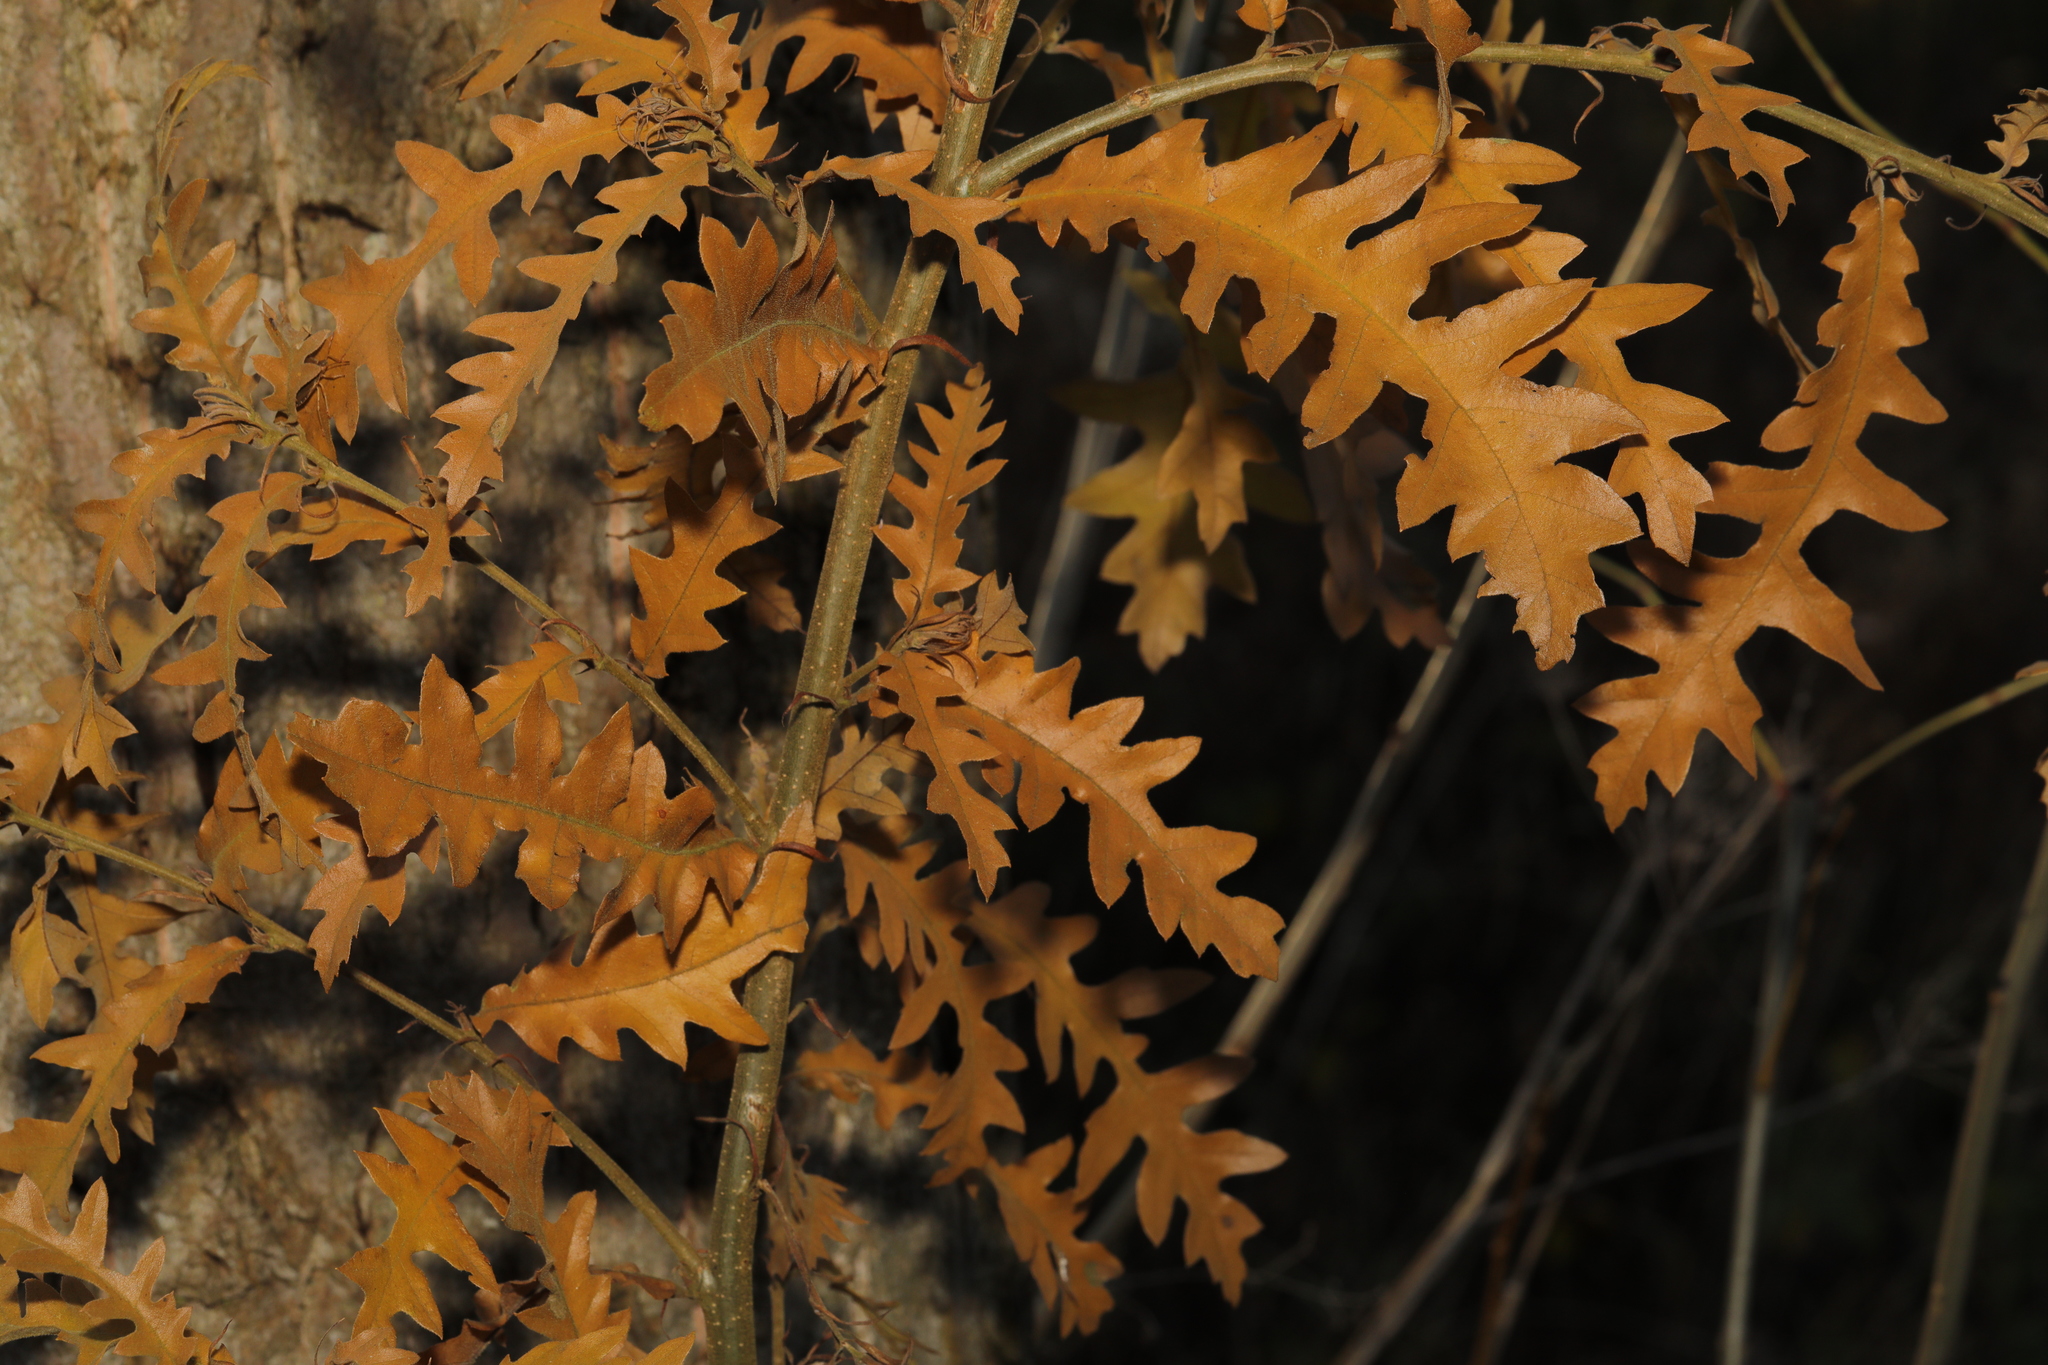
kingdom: Plantae
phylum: Tracheophyta
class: Magnoliopsida
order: Fagales
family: Fagaceae
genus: Quercus
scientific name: Quercus cerris
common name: Turkey oak
